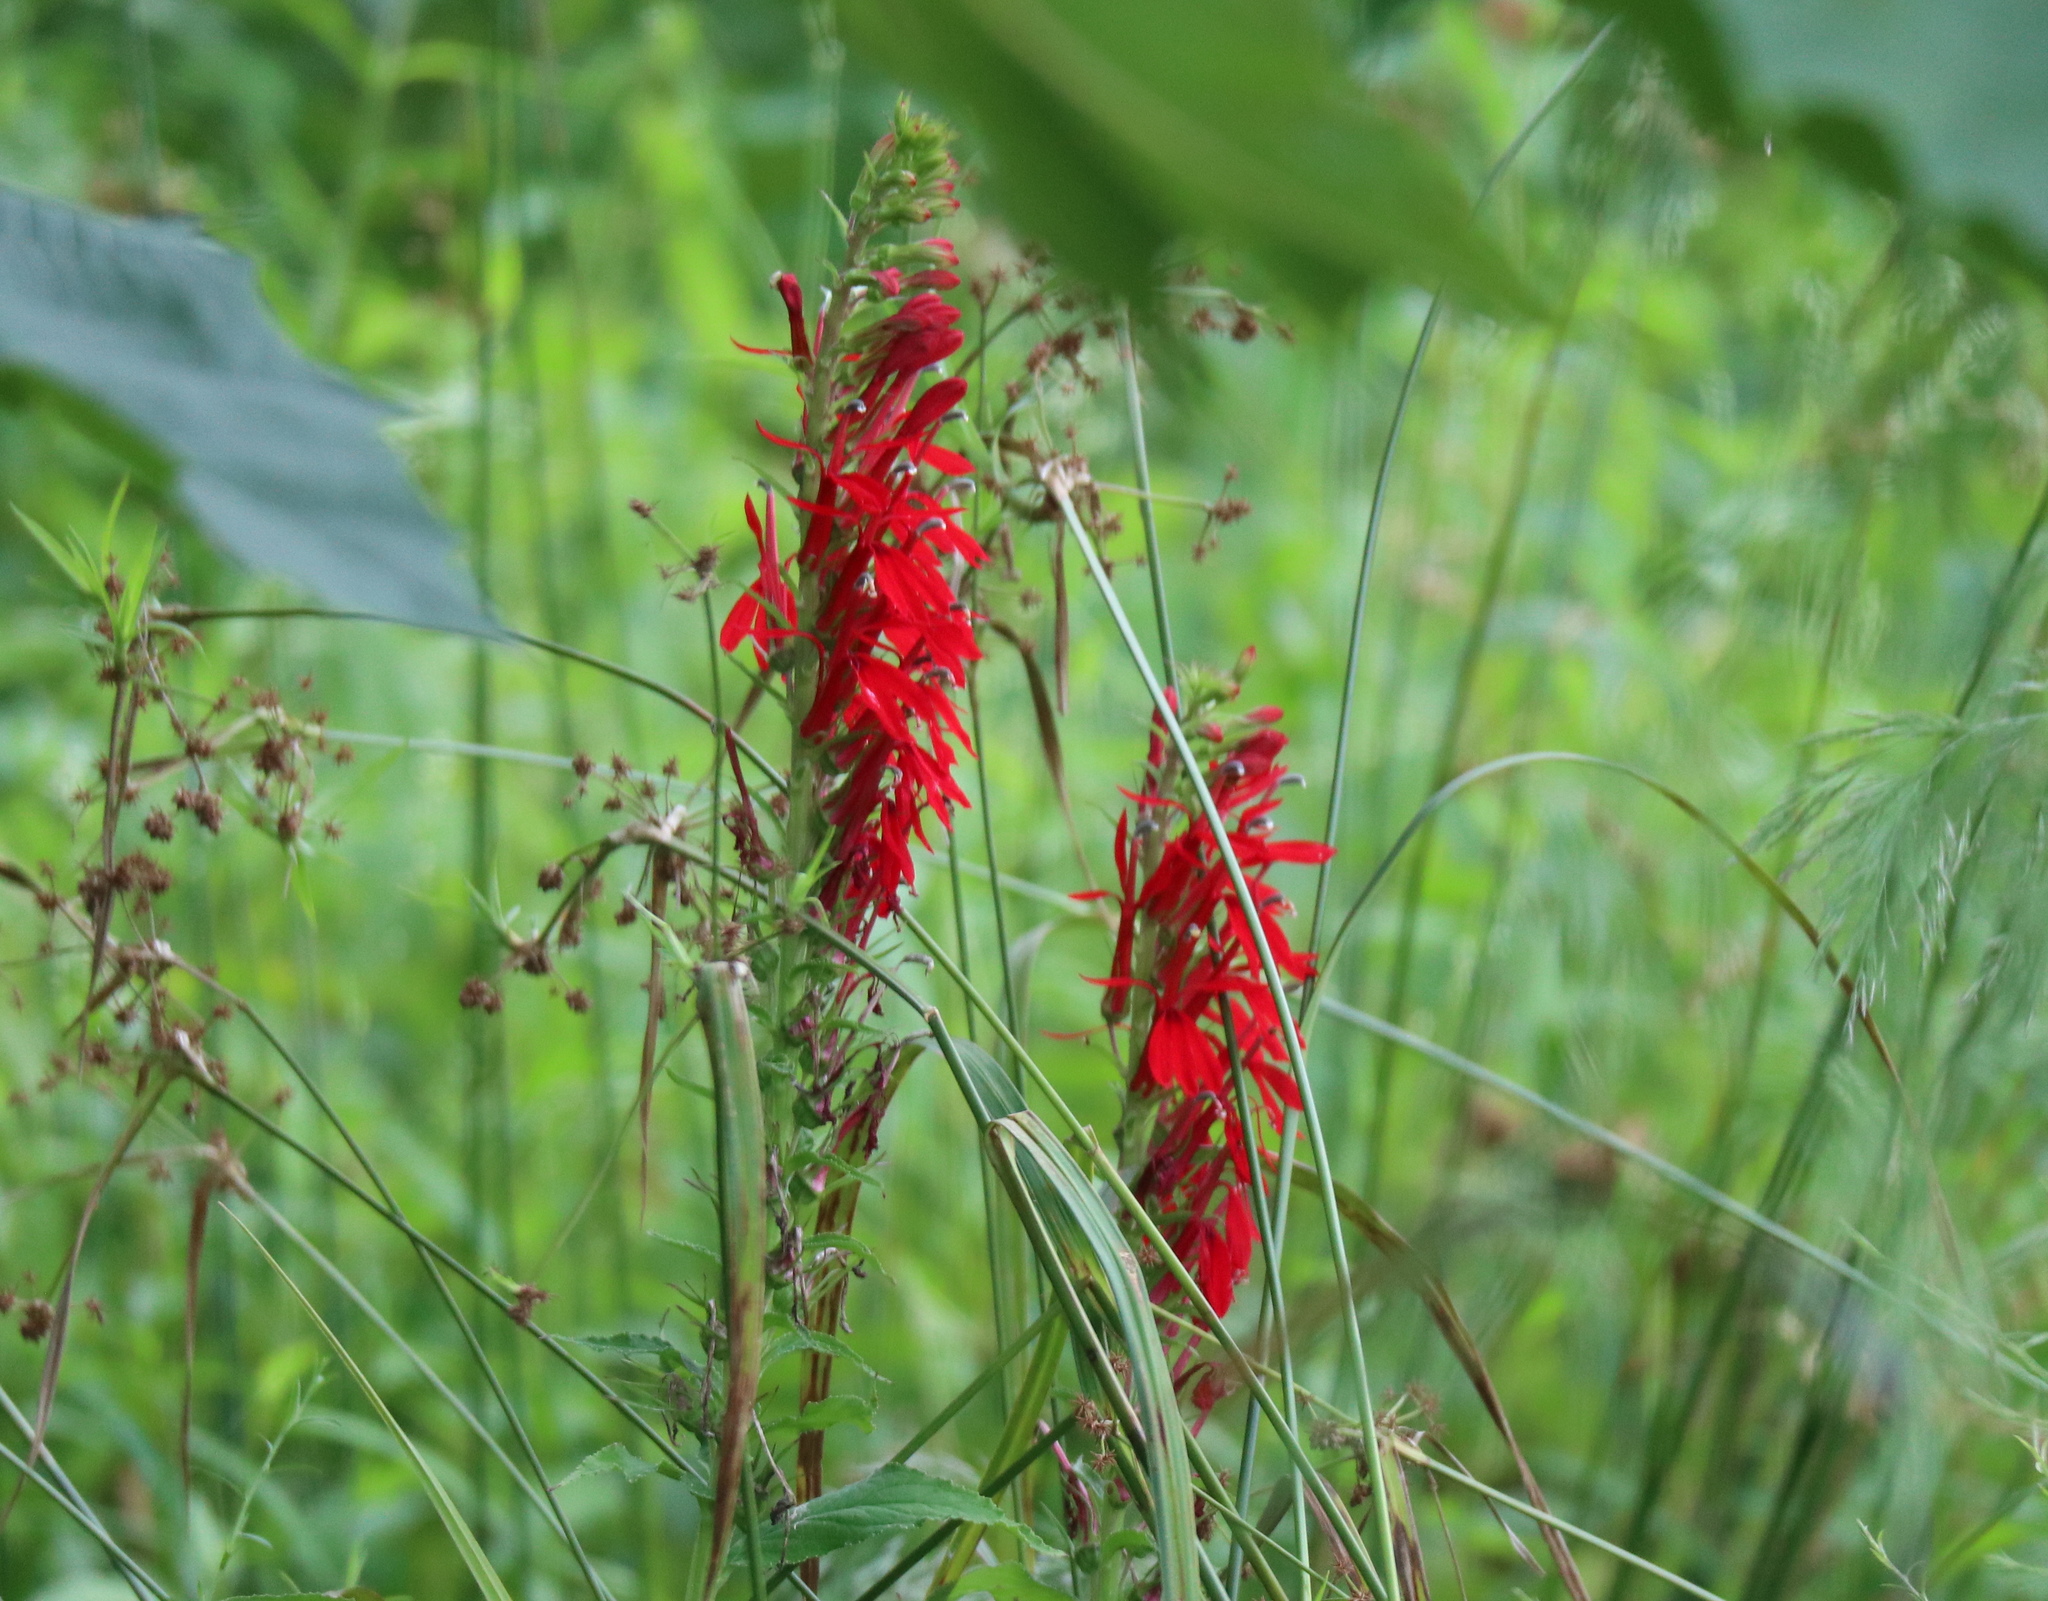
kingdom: Plantae
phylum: Tracheophyta
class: Magnoliopsida
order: Asterales
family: Campanulaceae
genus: Lobelia
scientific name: Lobelia cardinalis
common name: Cardinal flower
